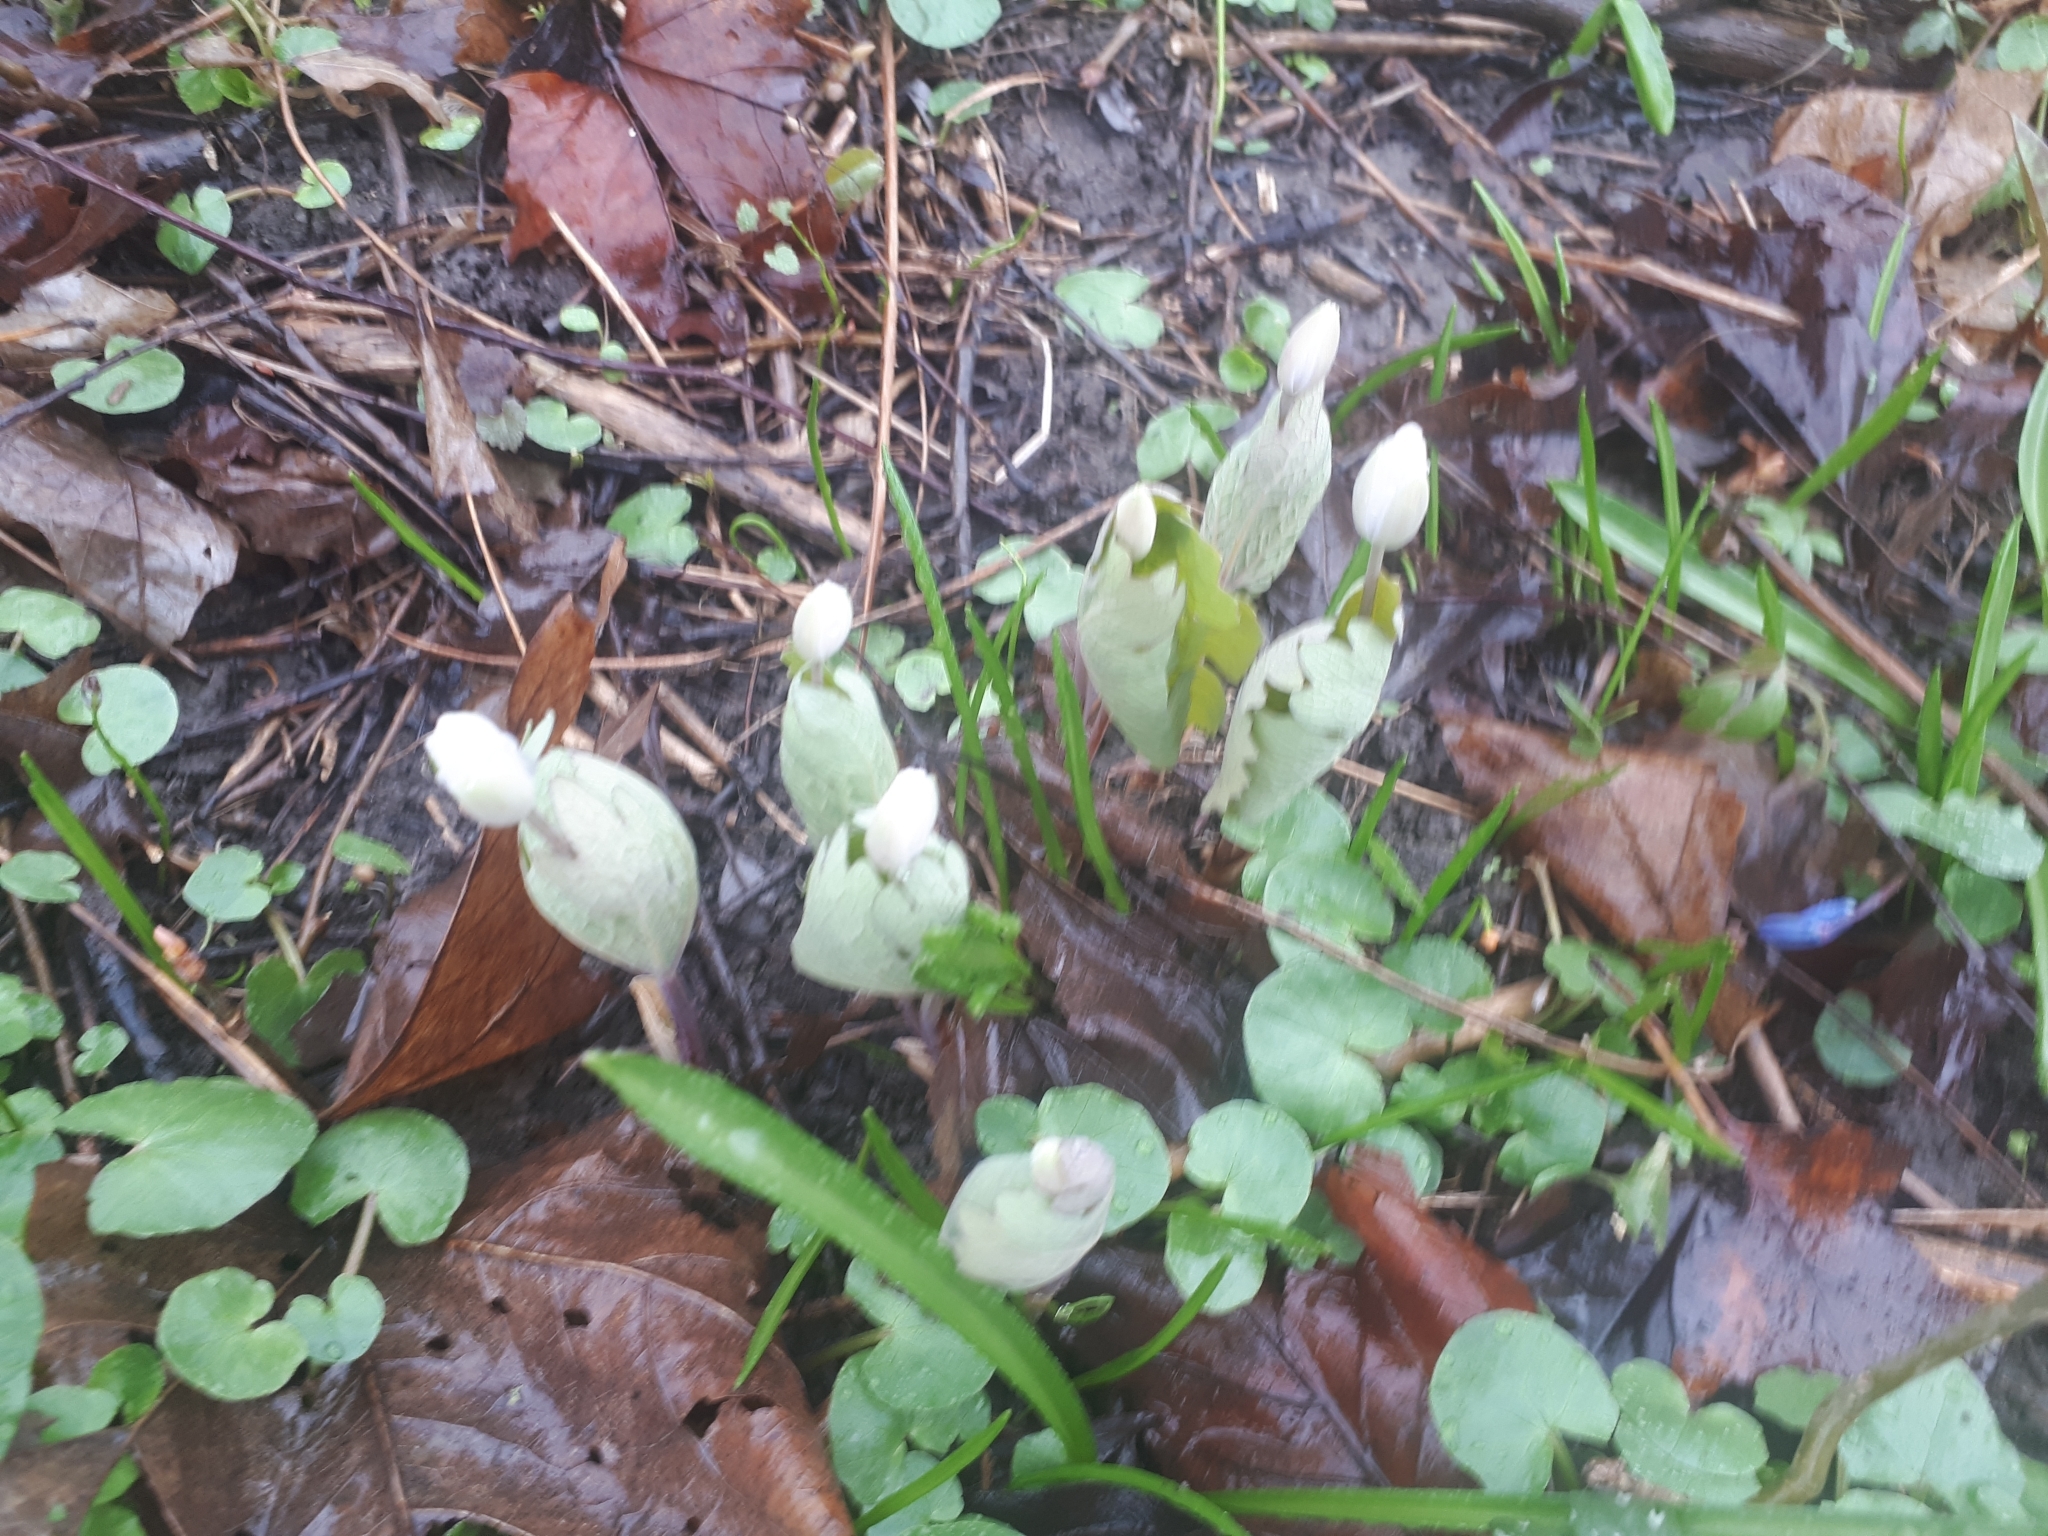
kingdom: Plantae
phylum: Tracheophyta
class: Magnoliopsida
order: Ranunculales
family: Papaveraceae
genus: Sanguinaria
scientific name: Sanguinaria canadensis
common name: Bloodroot
